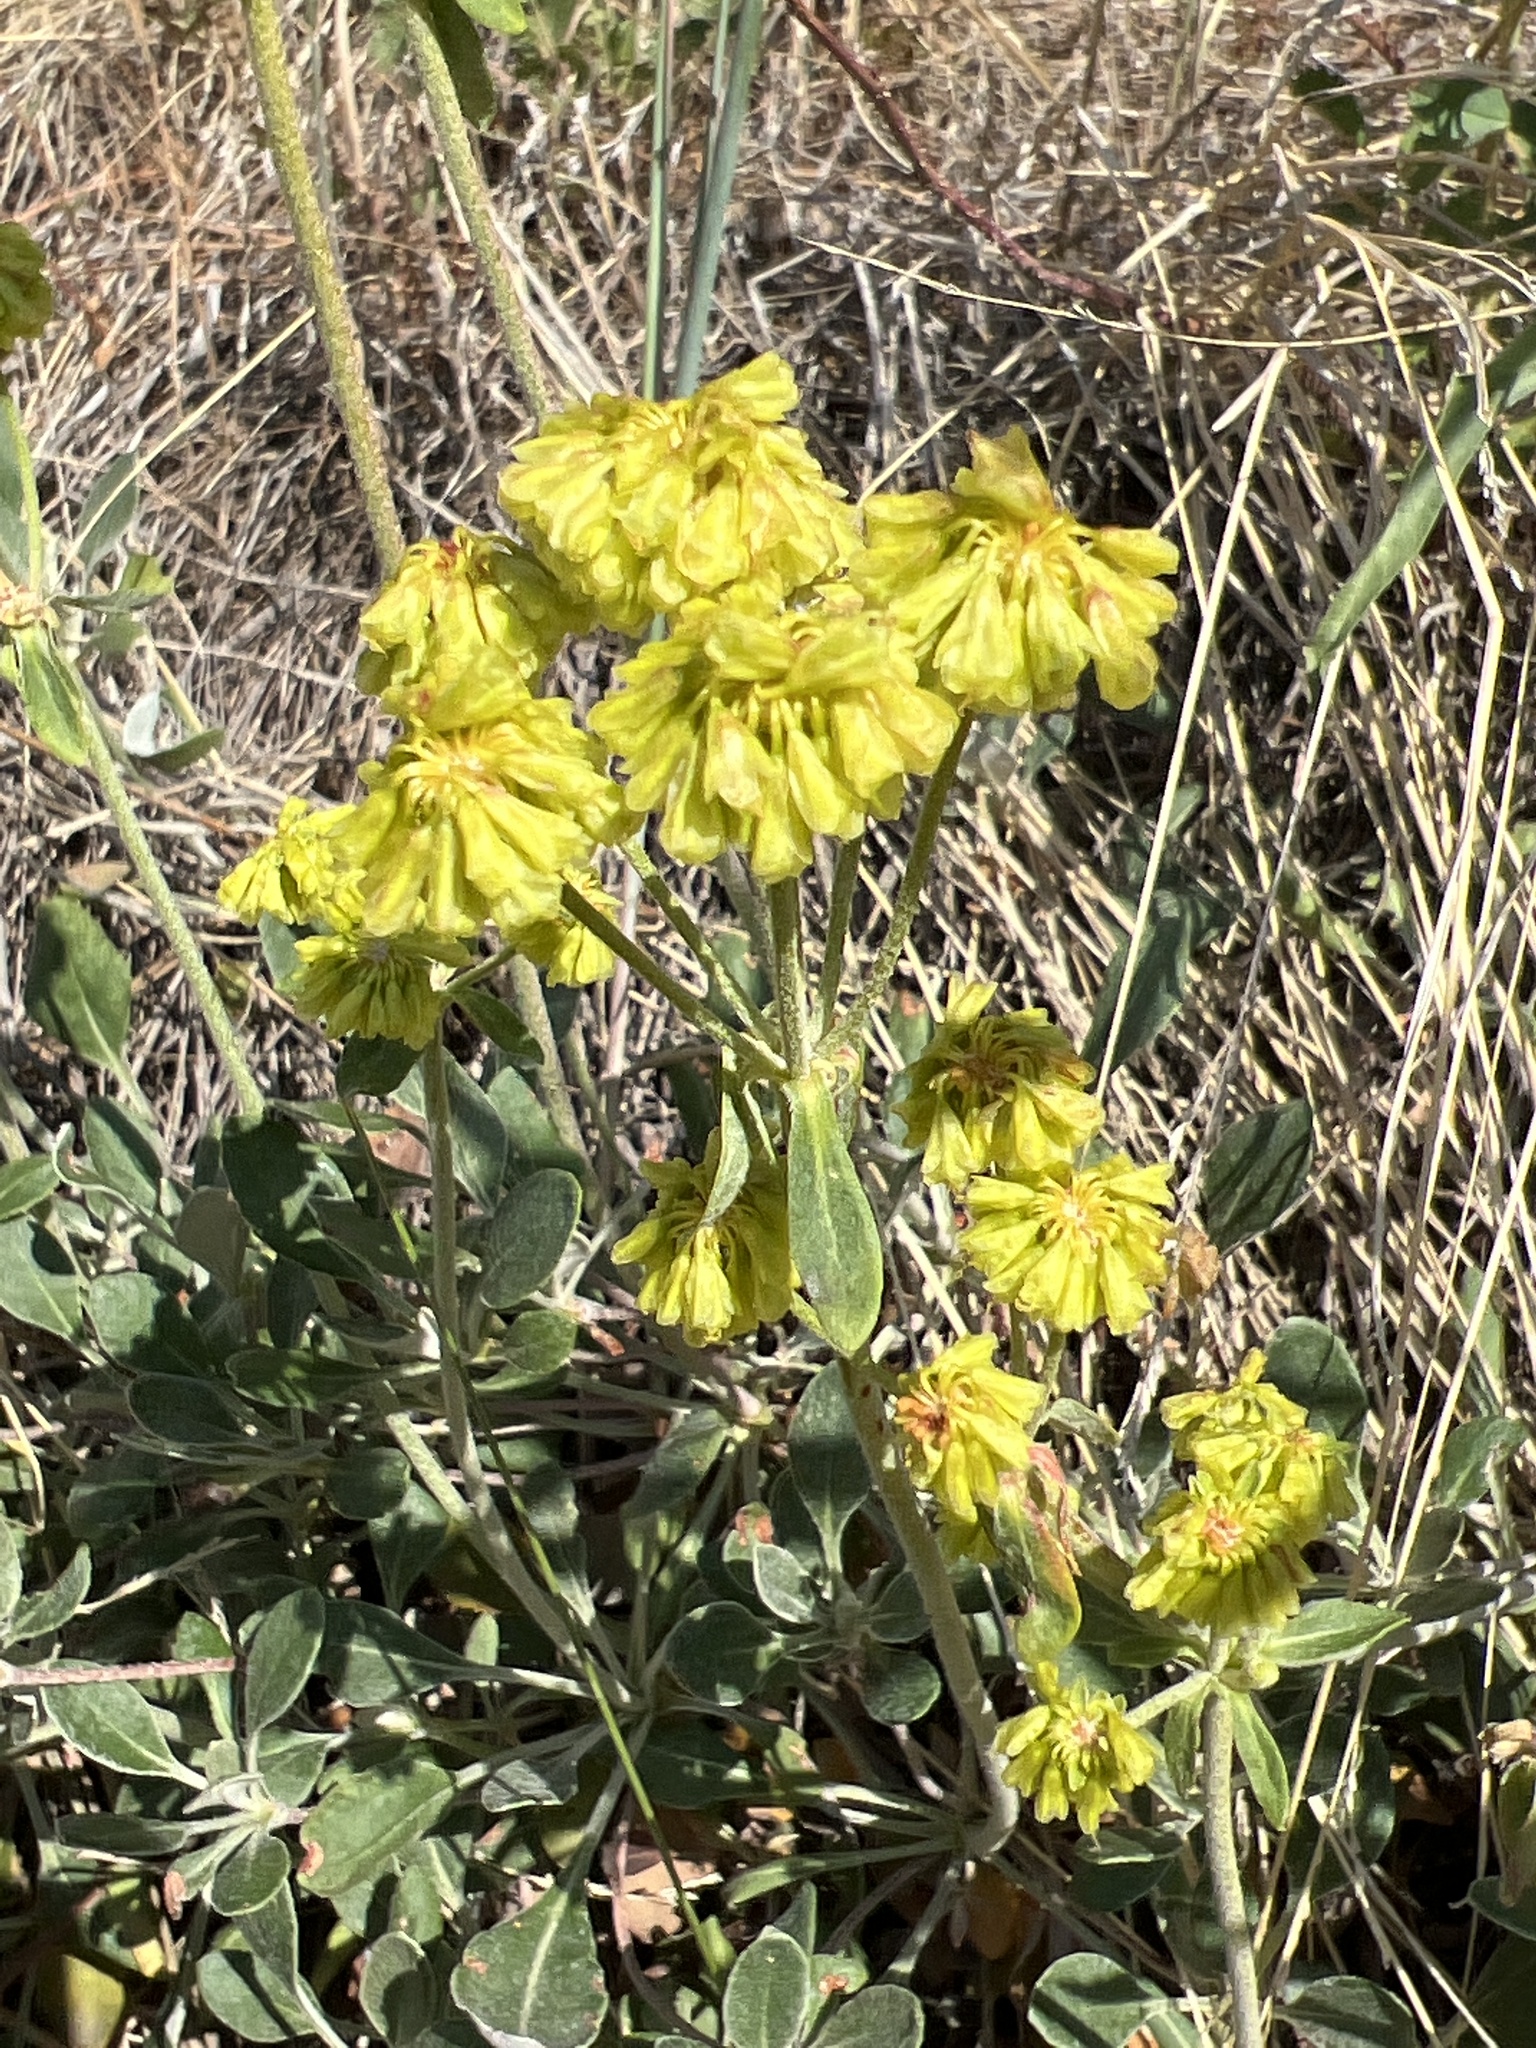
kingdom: Plantae
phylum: Tracheophyta
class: Magnoliopsida
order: Caryophyllales
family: Polygonaceae
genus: Eriogonum
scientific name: Eriogonum umbellatum
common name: Sulfur-buckwheat
